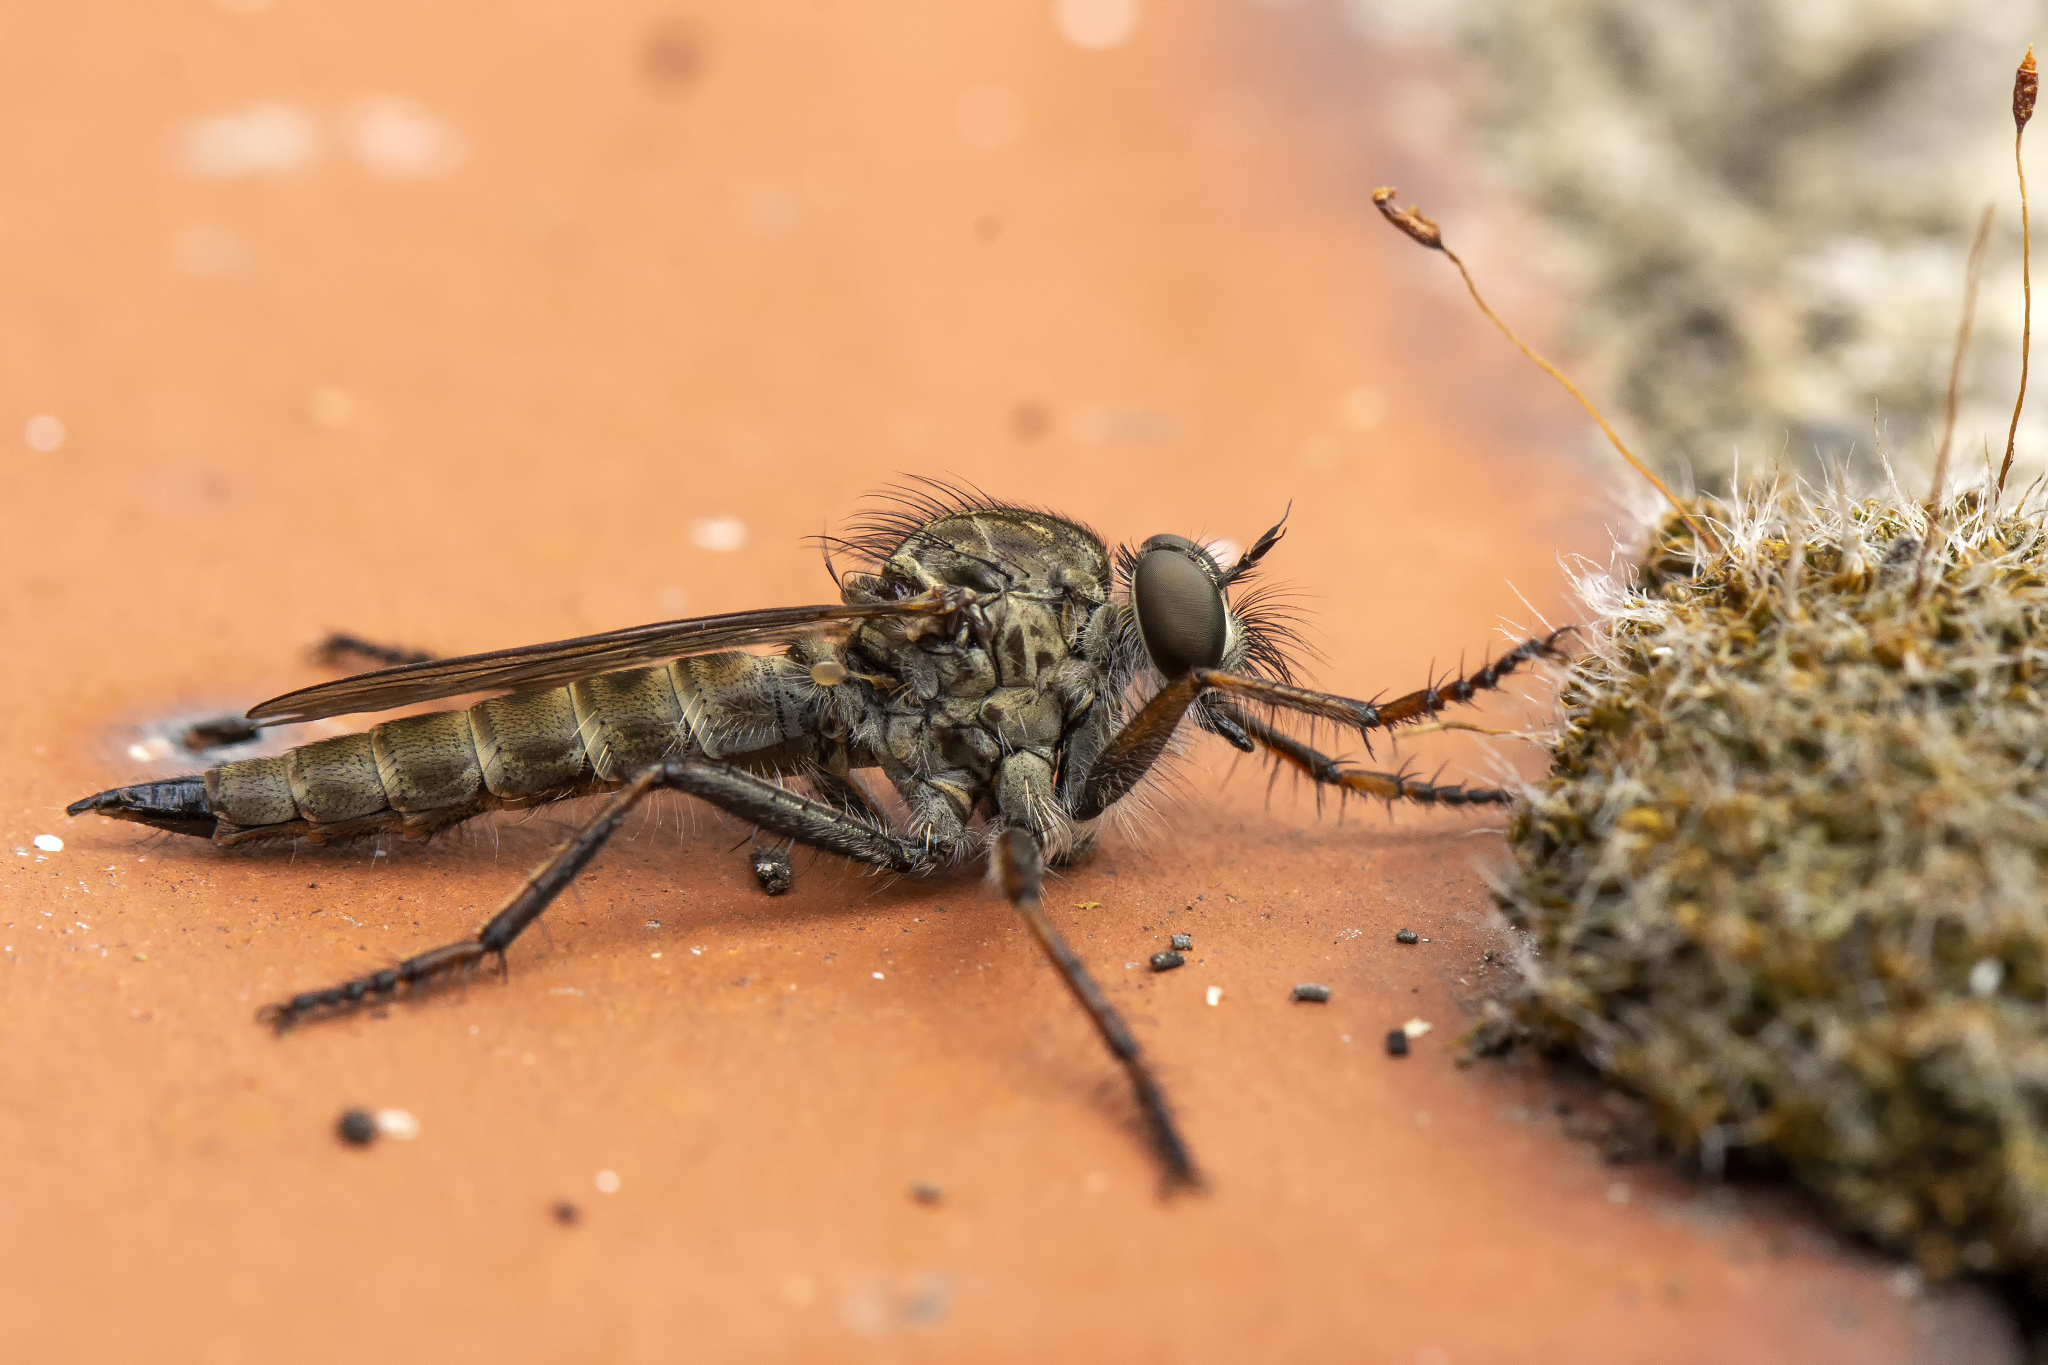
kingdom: Animalia
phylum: Arthropoda
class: Insecta
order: Diptera
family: Asilidae
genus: Machimus
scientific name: Machimus atricapillus
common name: Kite-tailed robberfly
